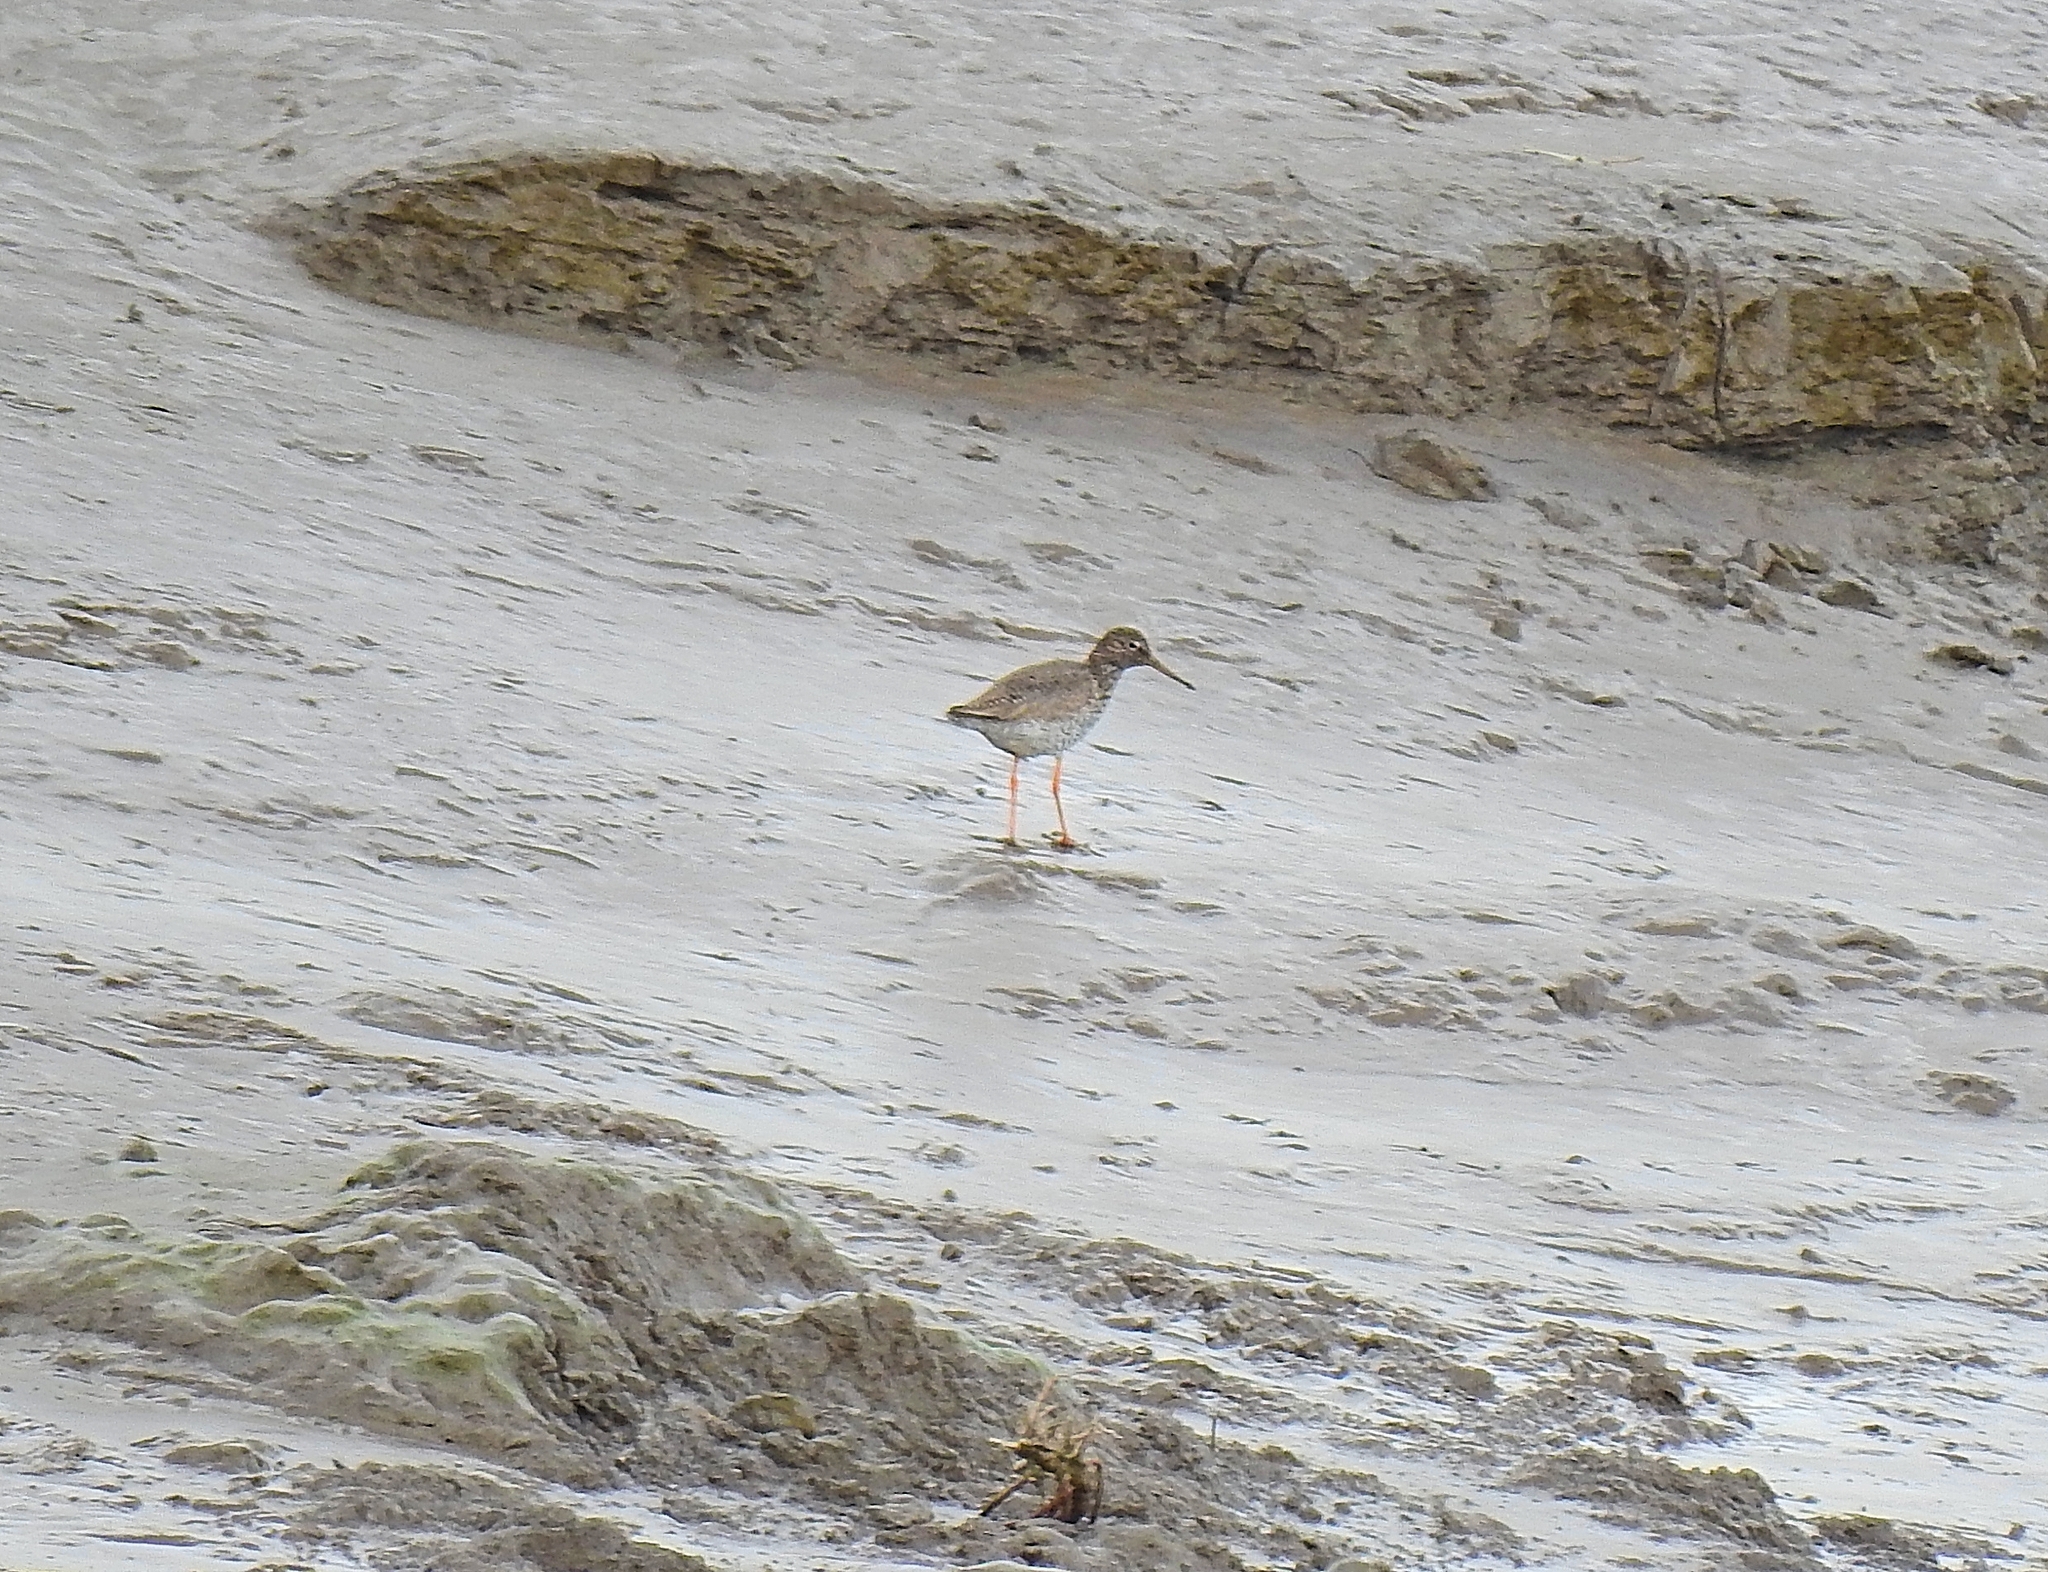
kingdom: Animalia
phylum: Chordata
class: Aves
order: Charadriiformes
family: Scolopacidae
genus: Tringa
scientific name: Tringa totanus
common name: Common redshank
